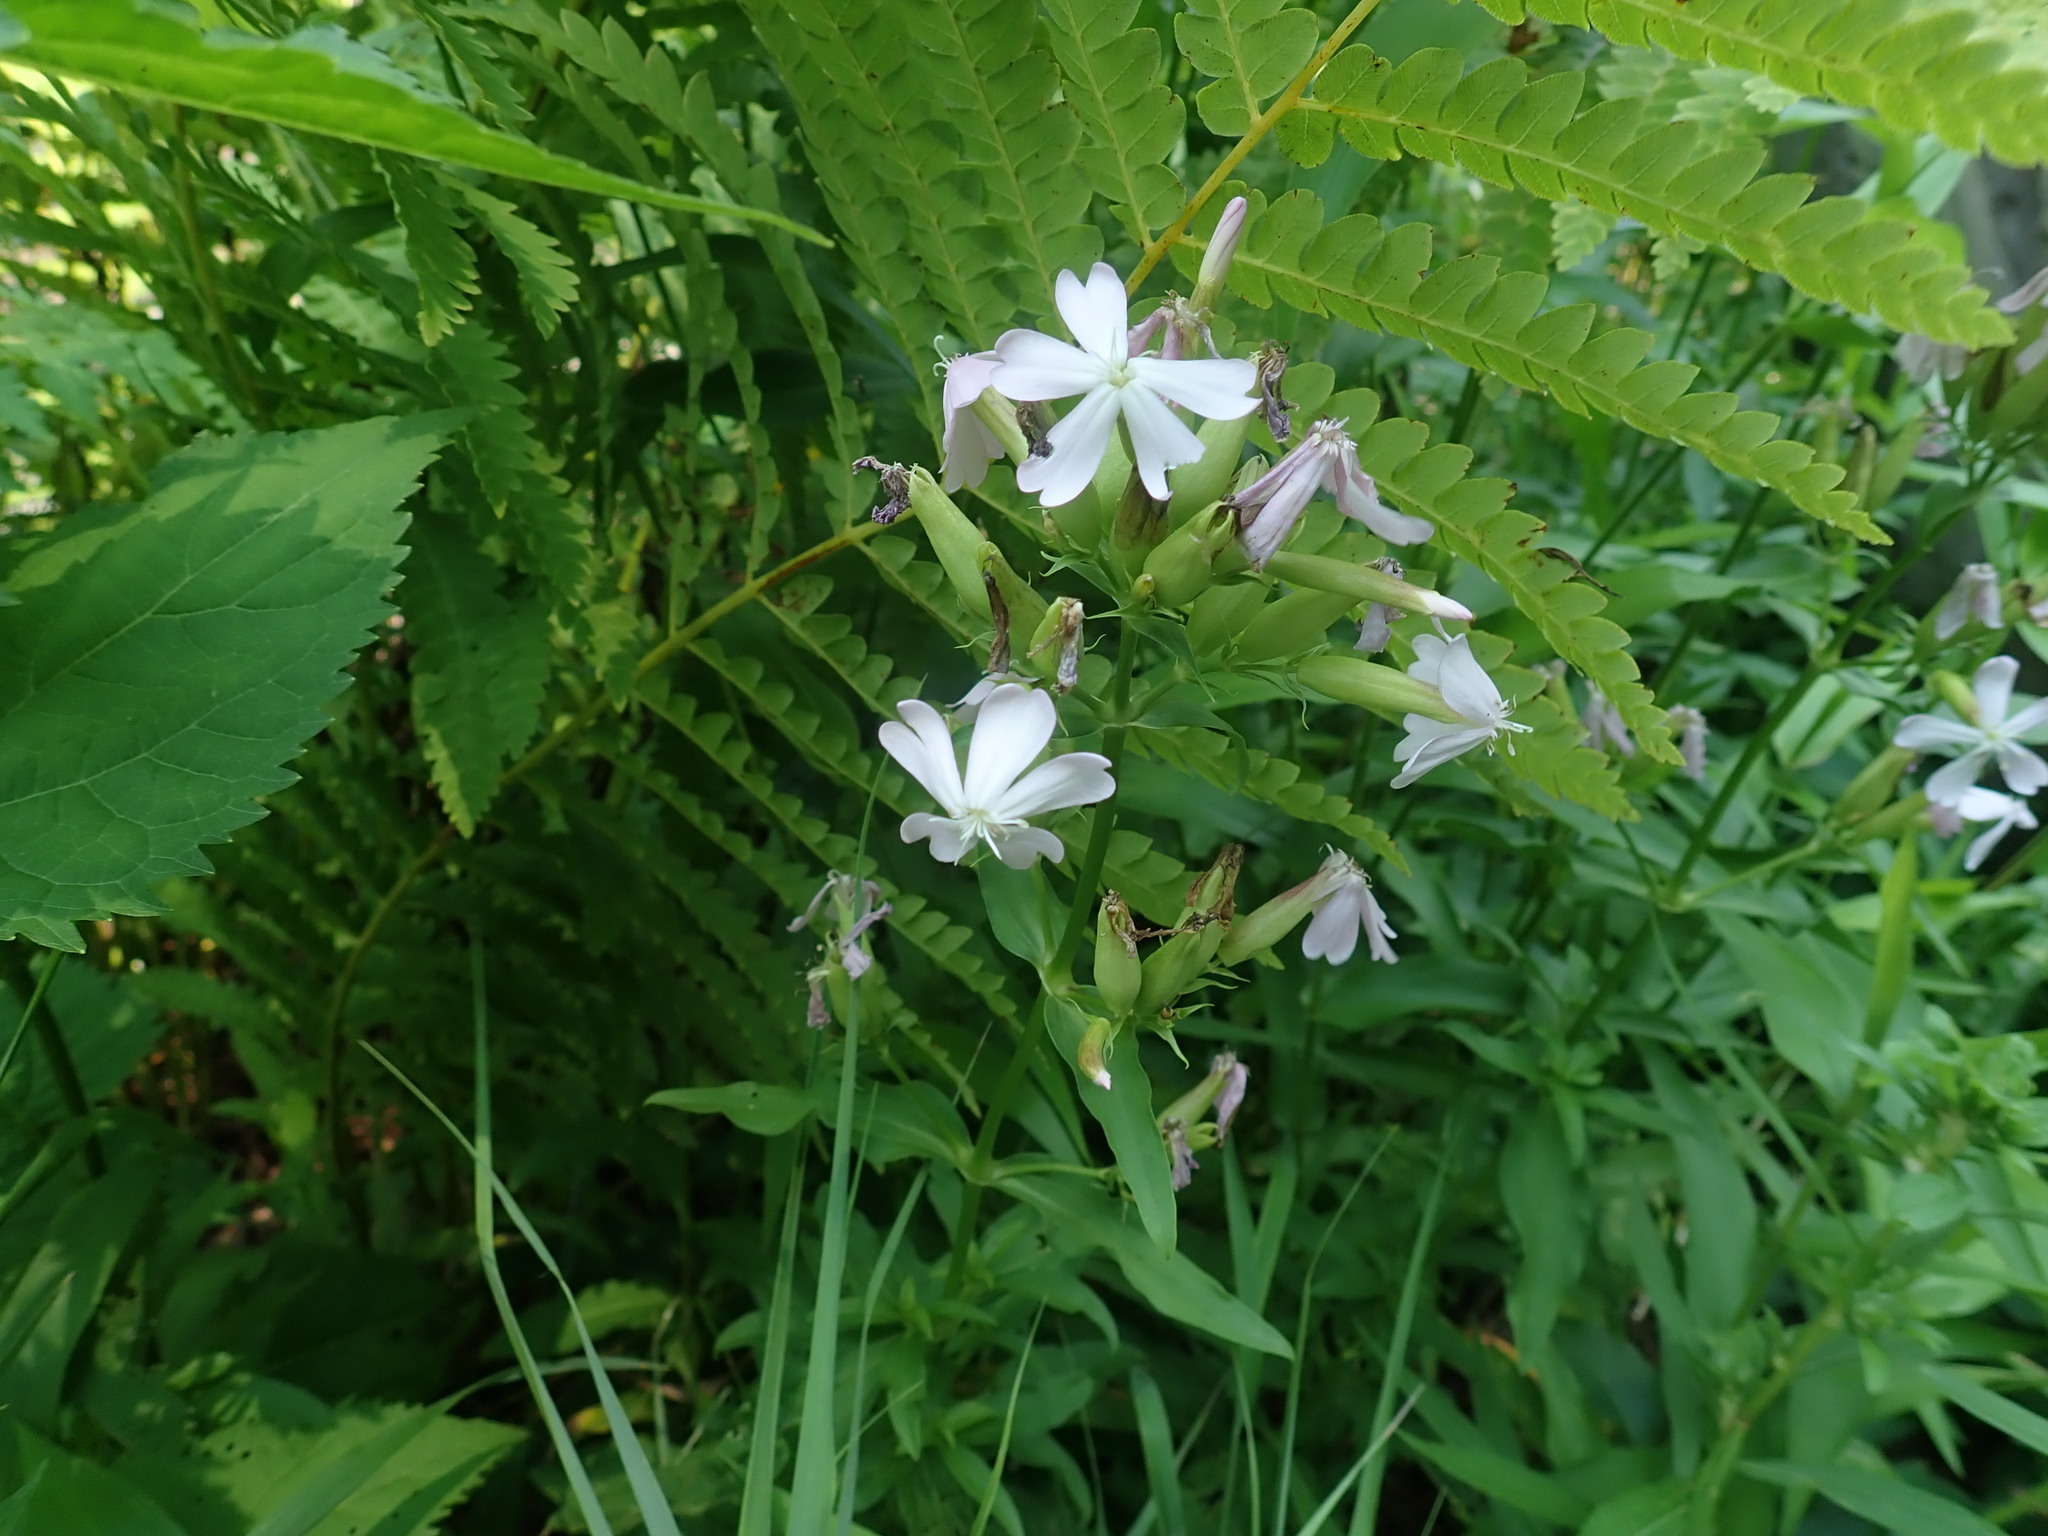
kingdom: Plantae
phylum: Tracheophyta
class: Magnoliopsida
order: Caryophyllales
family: Caryophyllaceae
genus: Saponaria
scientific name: Saponaria officinalis
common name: Soapwort
